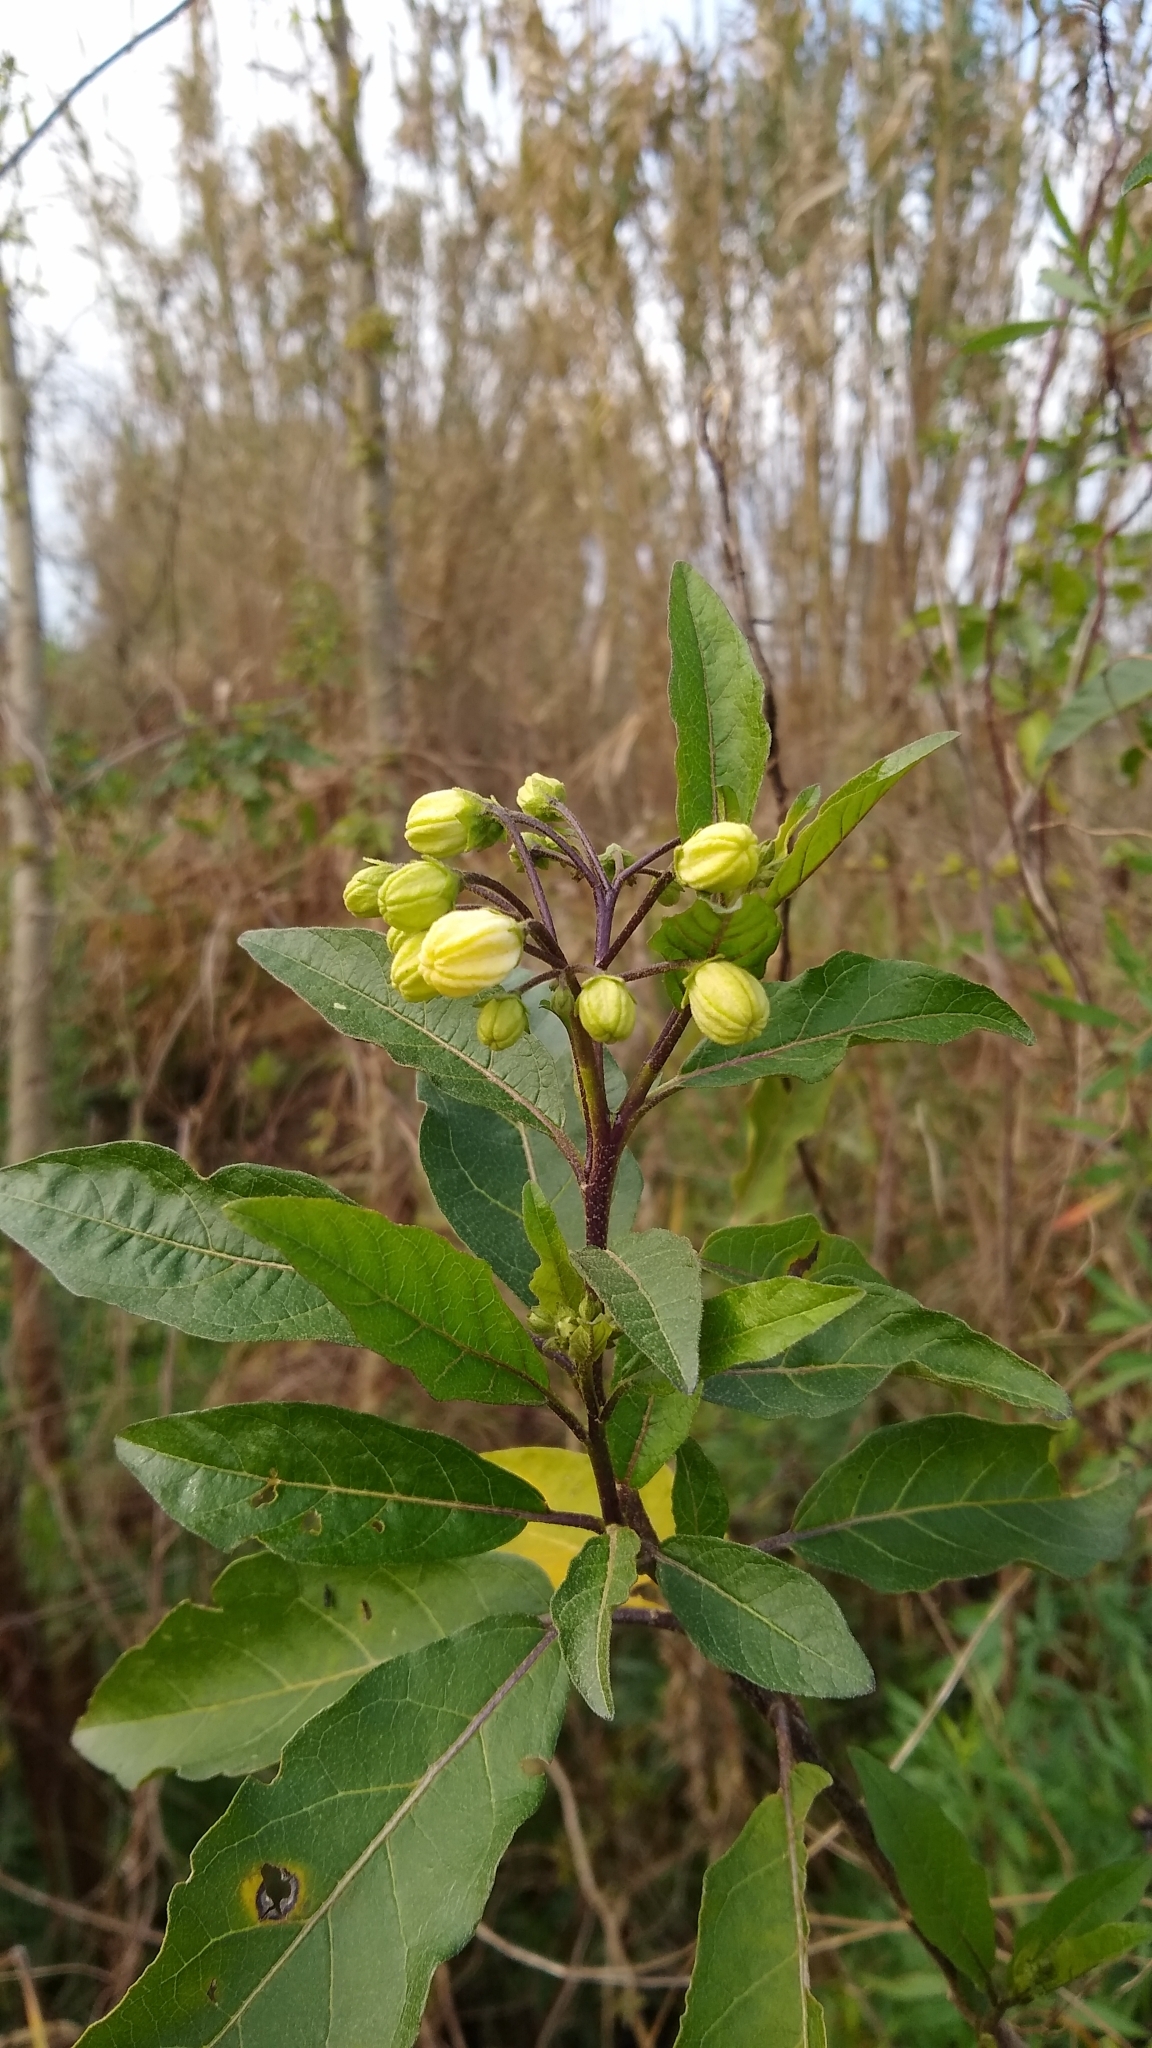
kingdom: Plantae
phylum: Tracheophyta
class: Magnoliopsida
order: Solanales
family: Solanaceae
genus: Solanum
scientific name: Solanum bonariense
